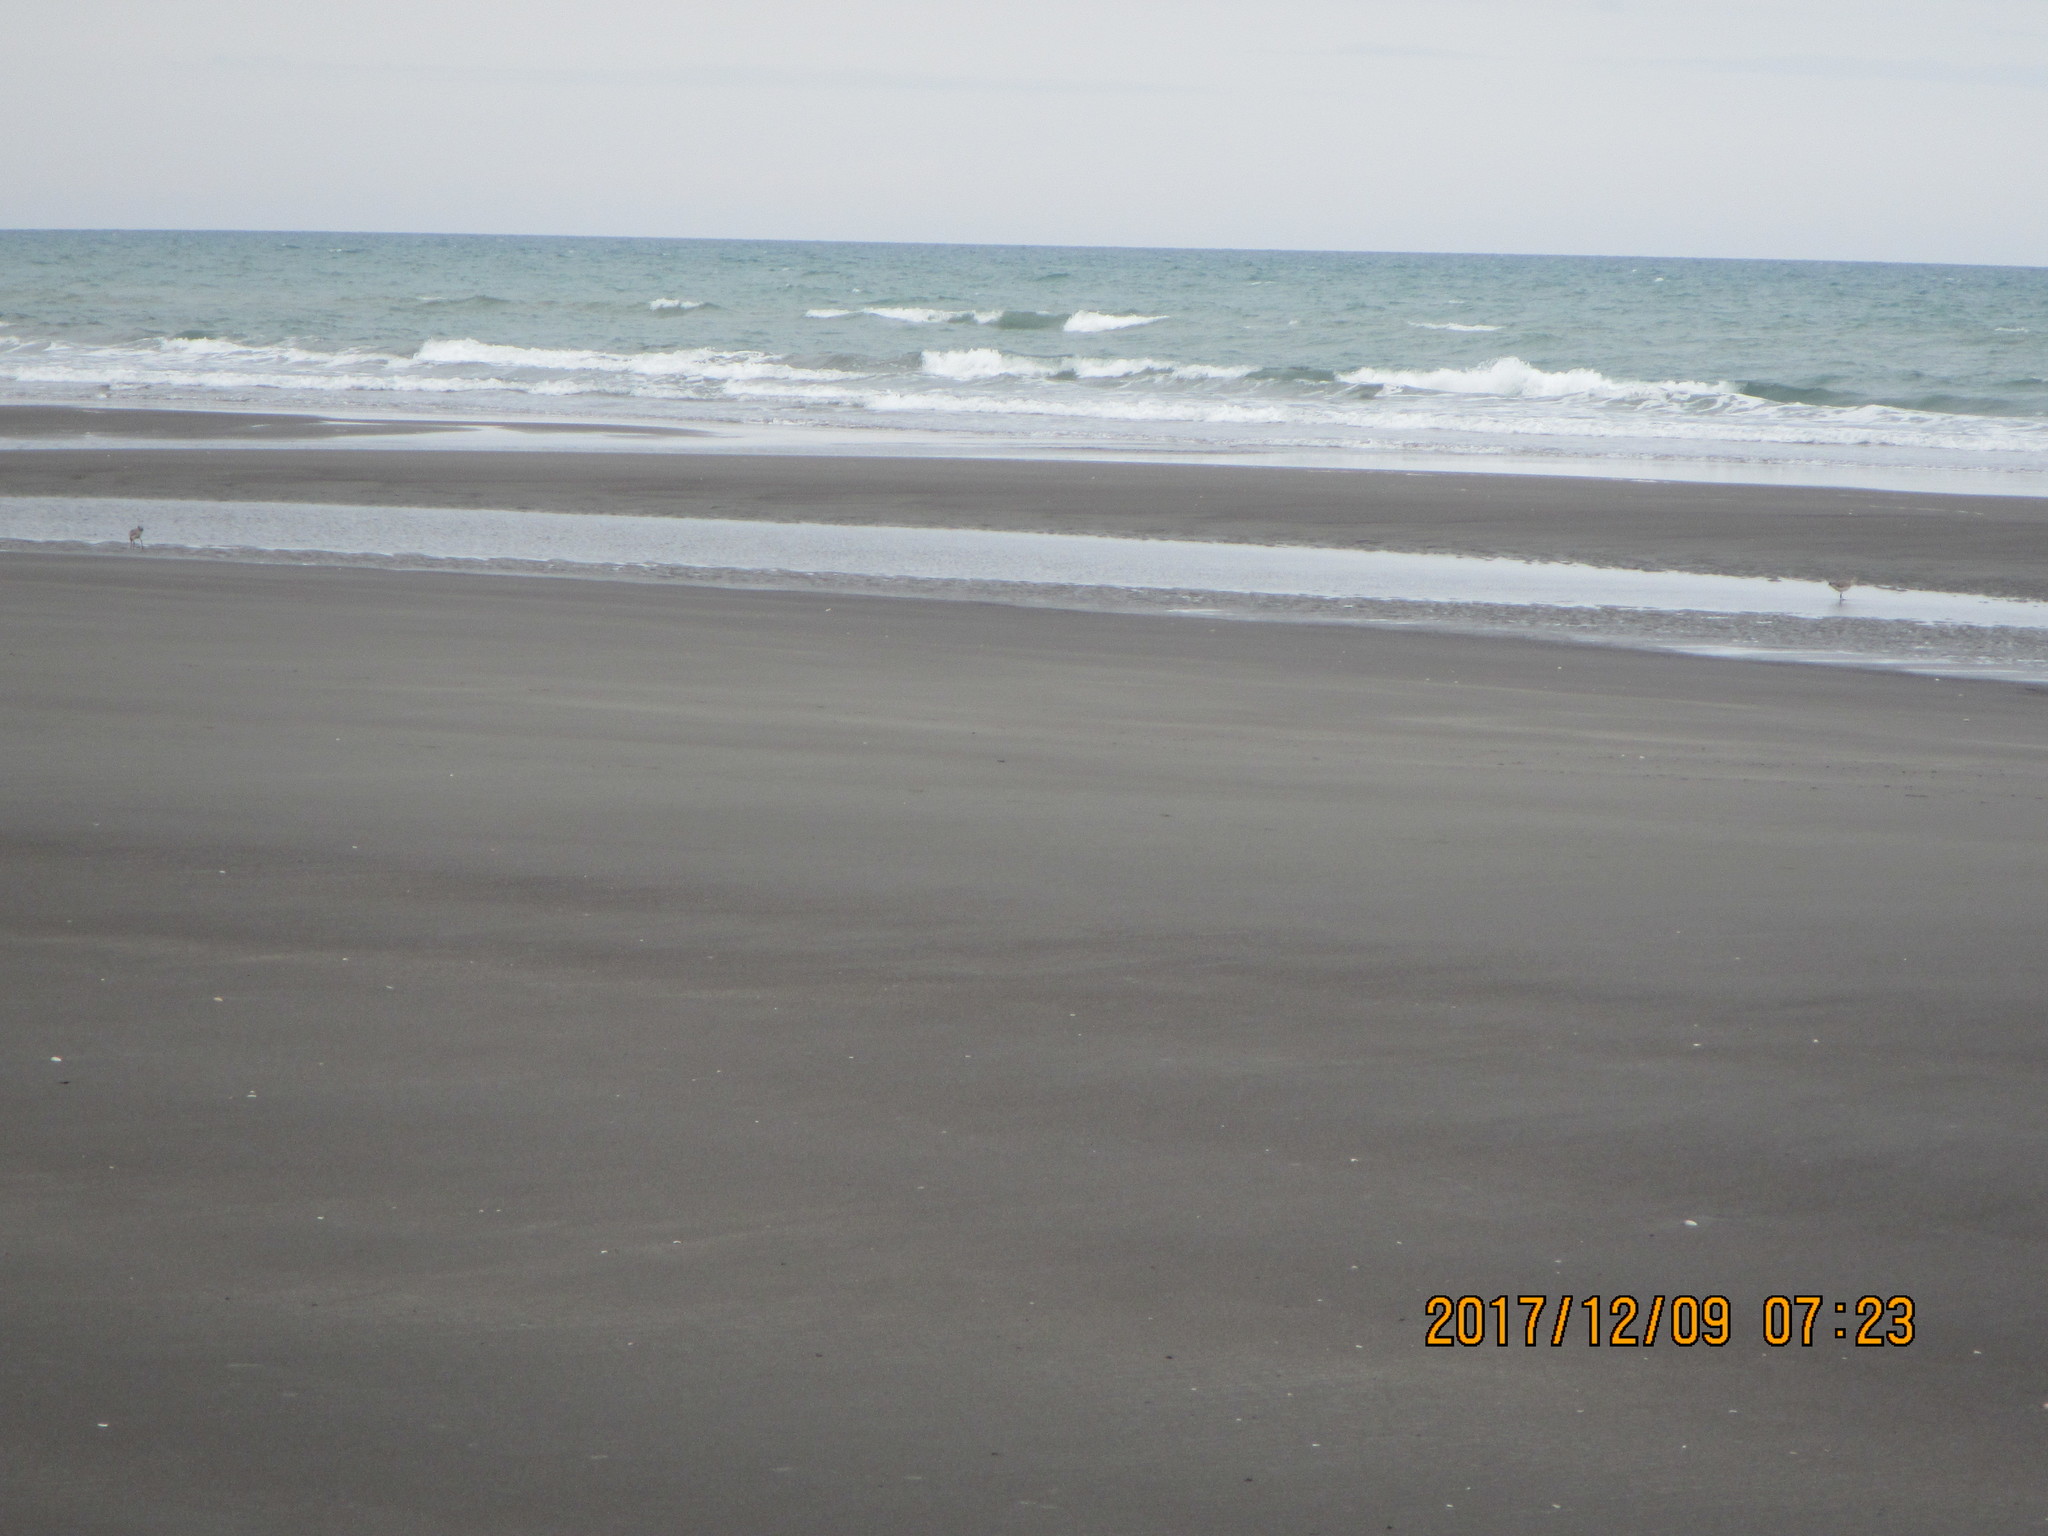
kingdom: Animalia
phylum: Chordata
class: Aves
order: Charadriiformes
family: Scolopacidae
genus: Limosa
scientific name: Limosa lapponica
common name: Bar-tailed godwit
